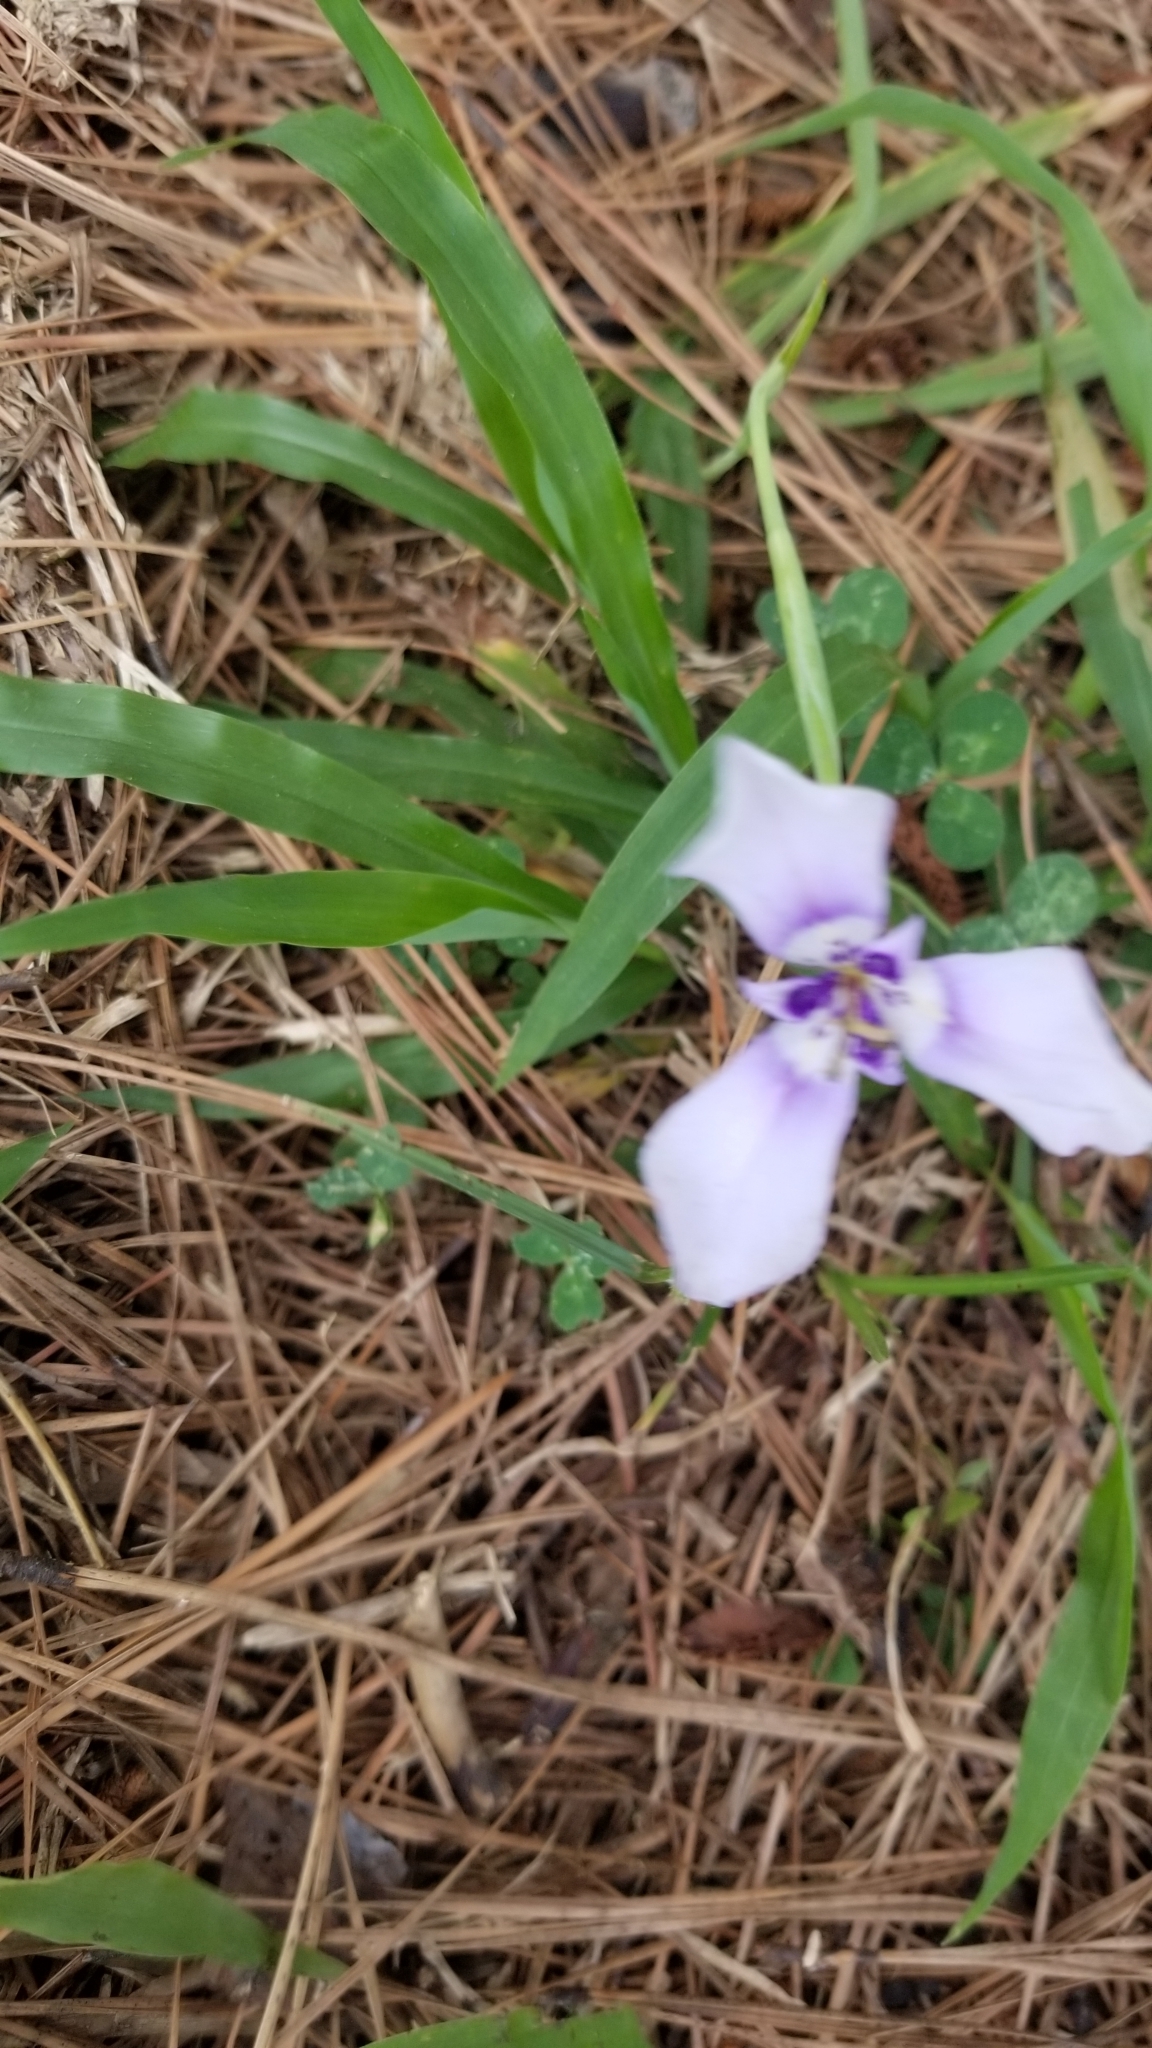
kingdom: Plantae
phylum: Tracheophyta
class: Liliopsida
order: Asparagales
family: Iridaceae
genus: Herbertia
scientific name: Herbertia lahue
